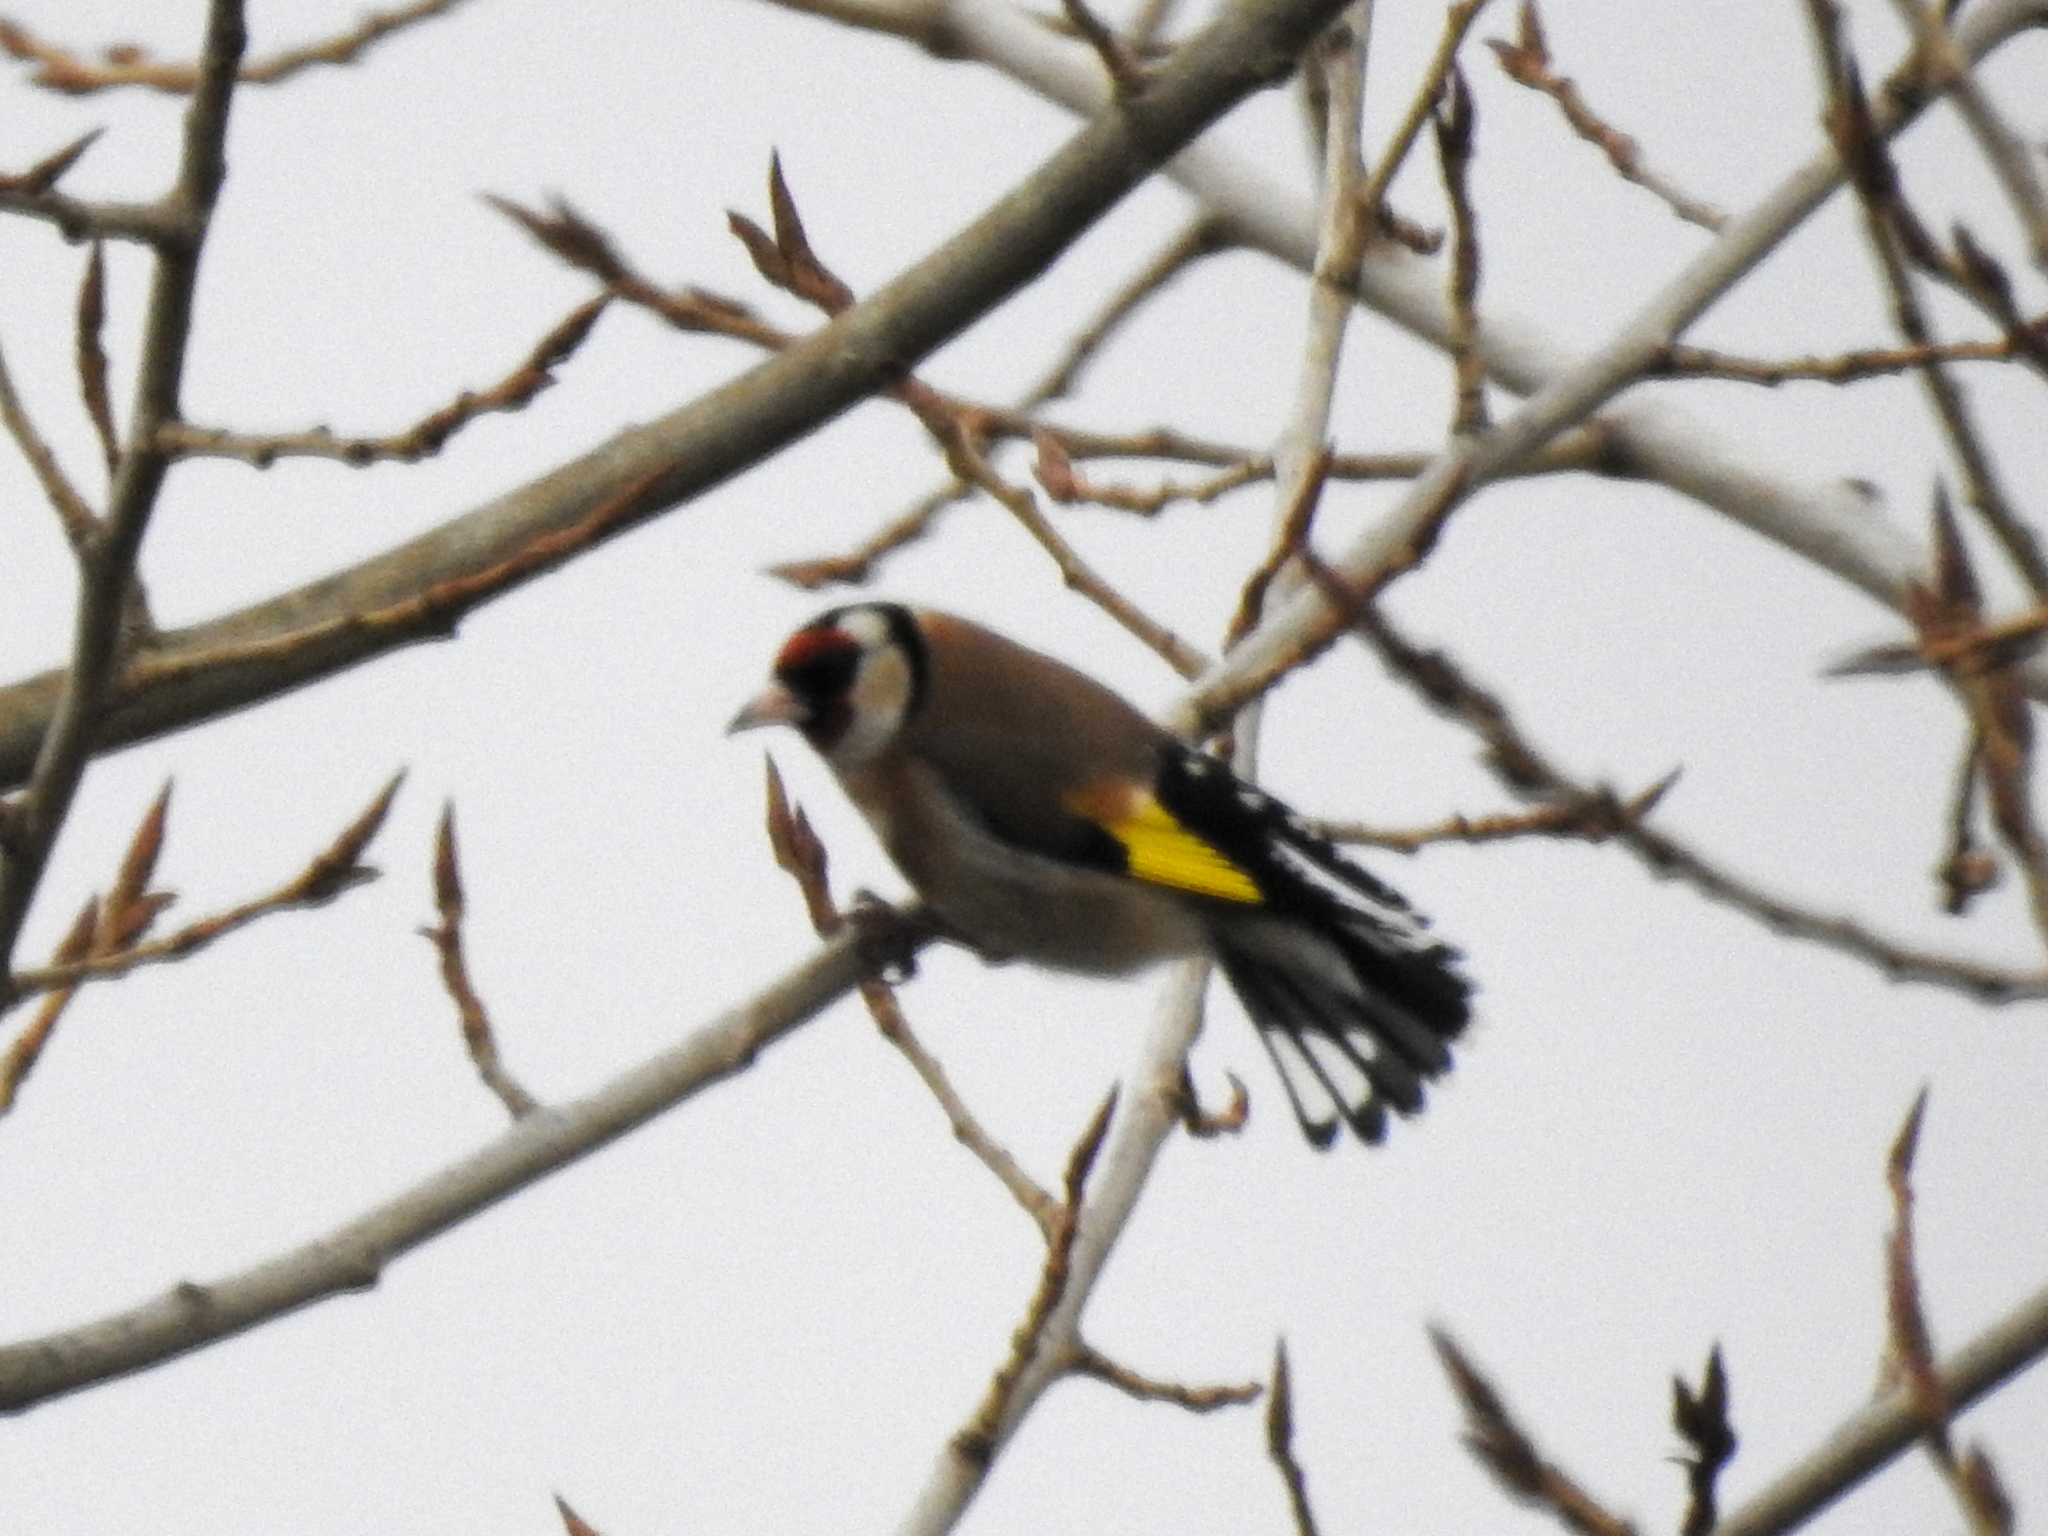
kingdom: Animalia
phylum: Chordata
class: Aves
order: Passeriformes
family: Fringillidae
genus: Carduelis
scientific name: Carduelis carduelis
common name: European goldfinch
